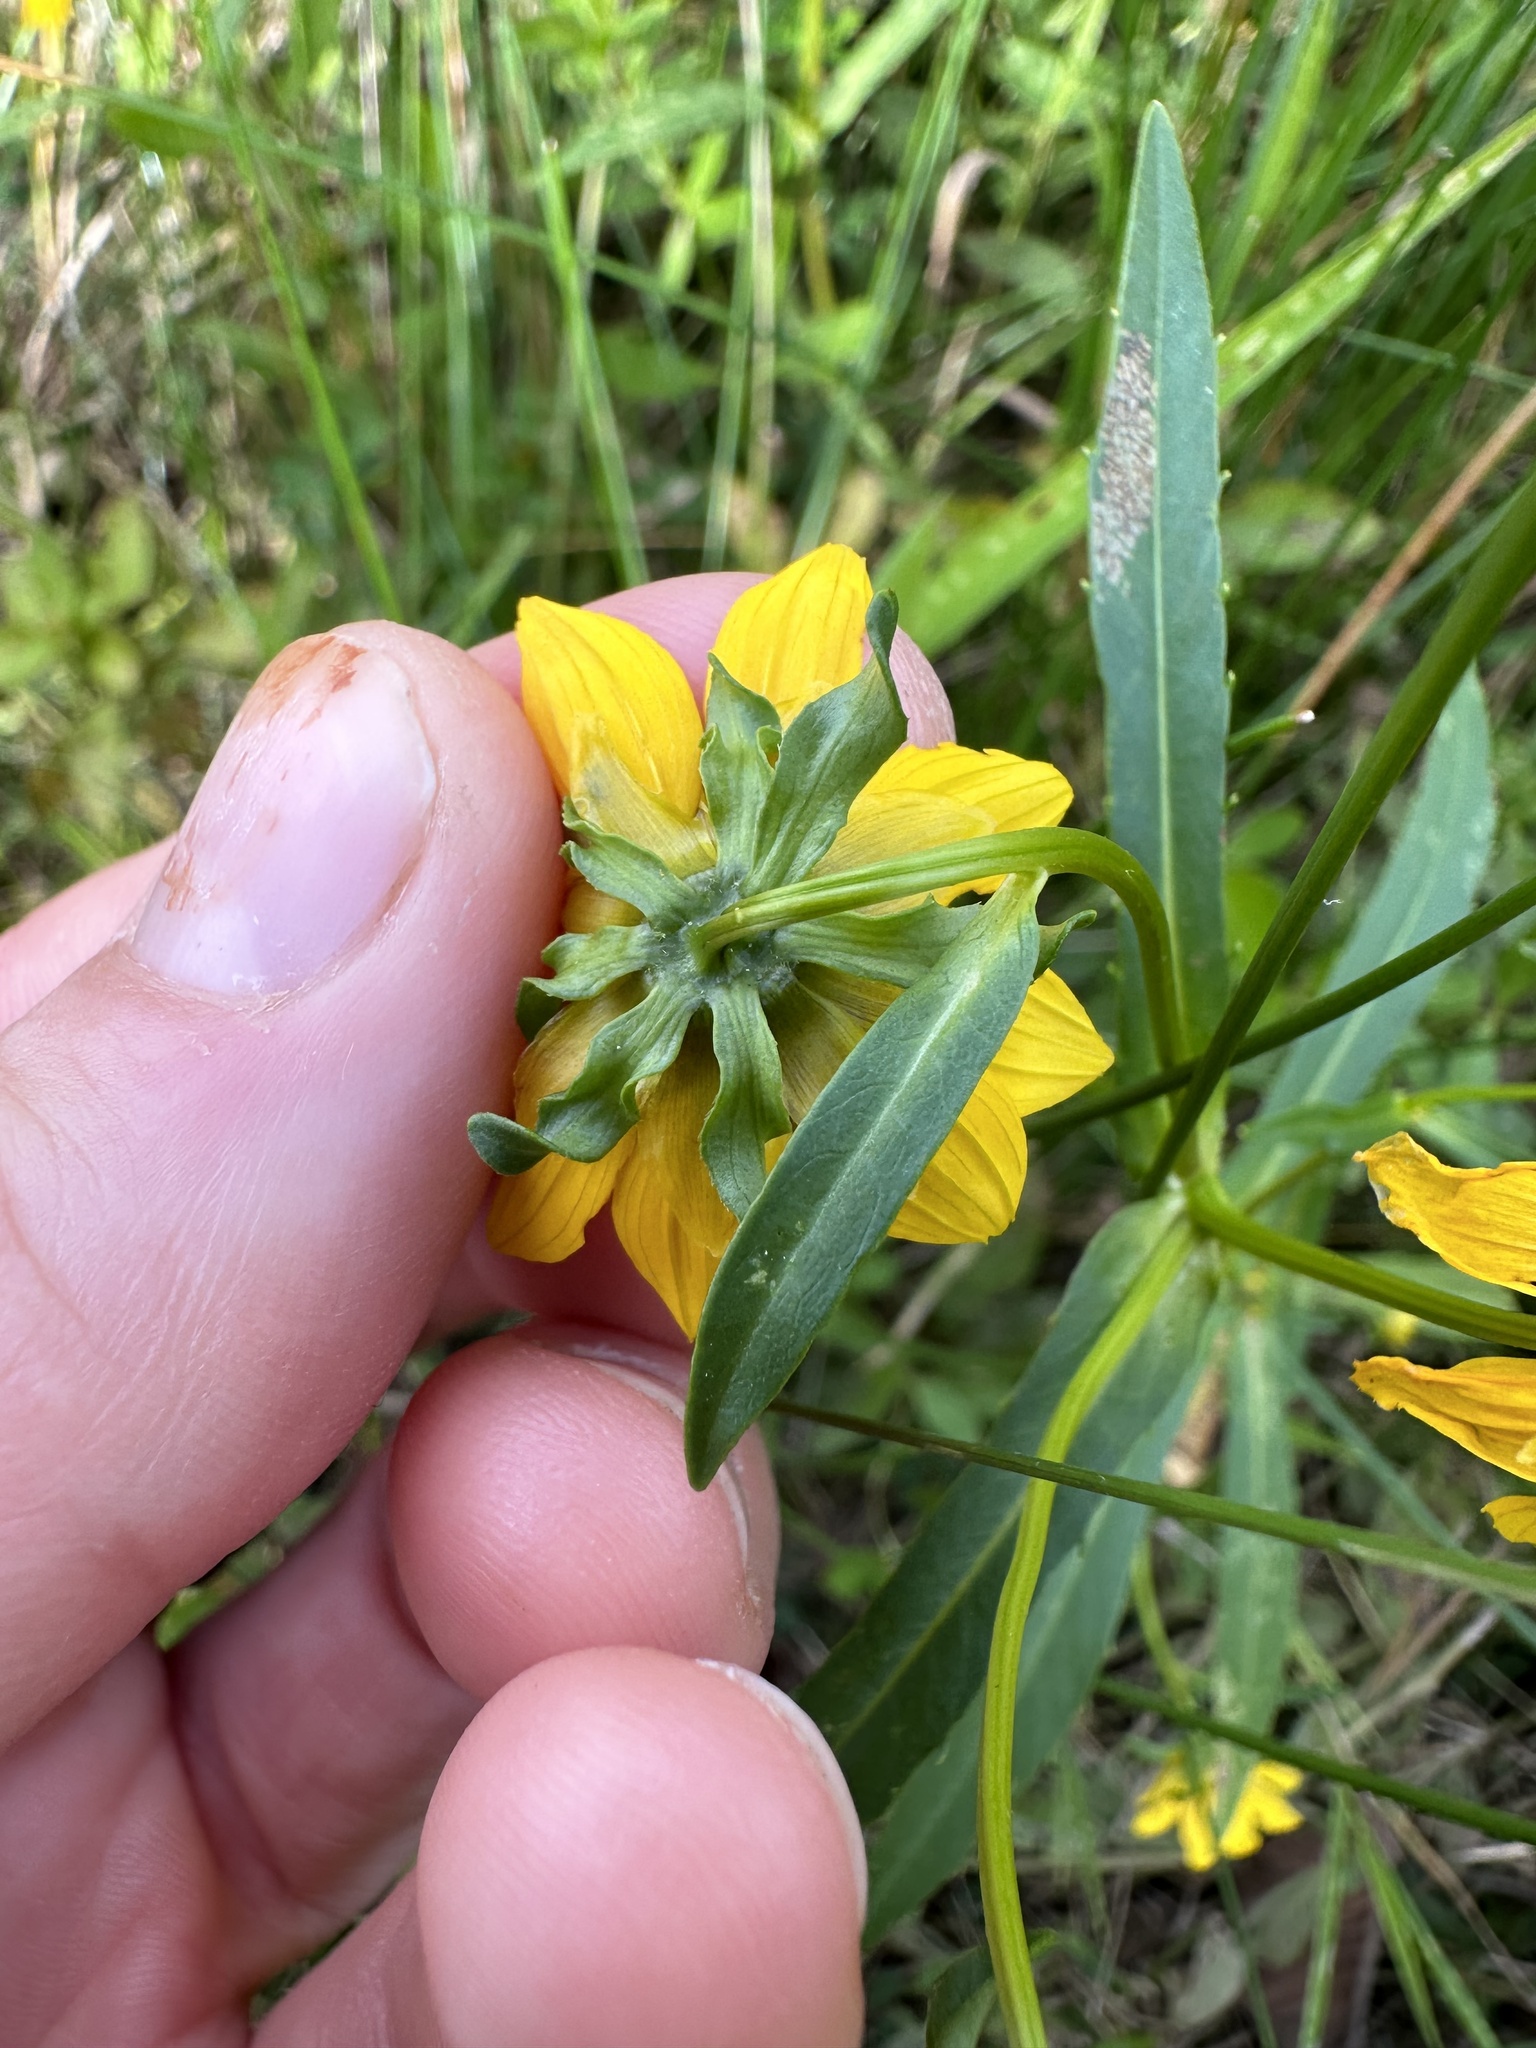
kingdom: Plantae
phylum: Tracheophyta
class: Magnoliopsida
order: Asterales
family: Asteraceae
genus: Bidens
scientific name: Bidens cernua
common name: Nodding bur-marigold
